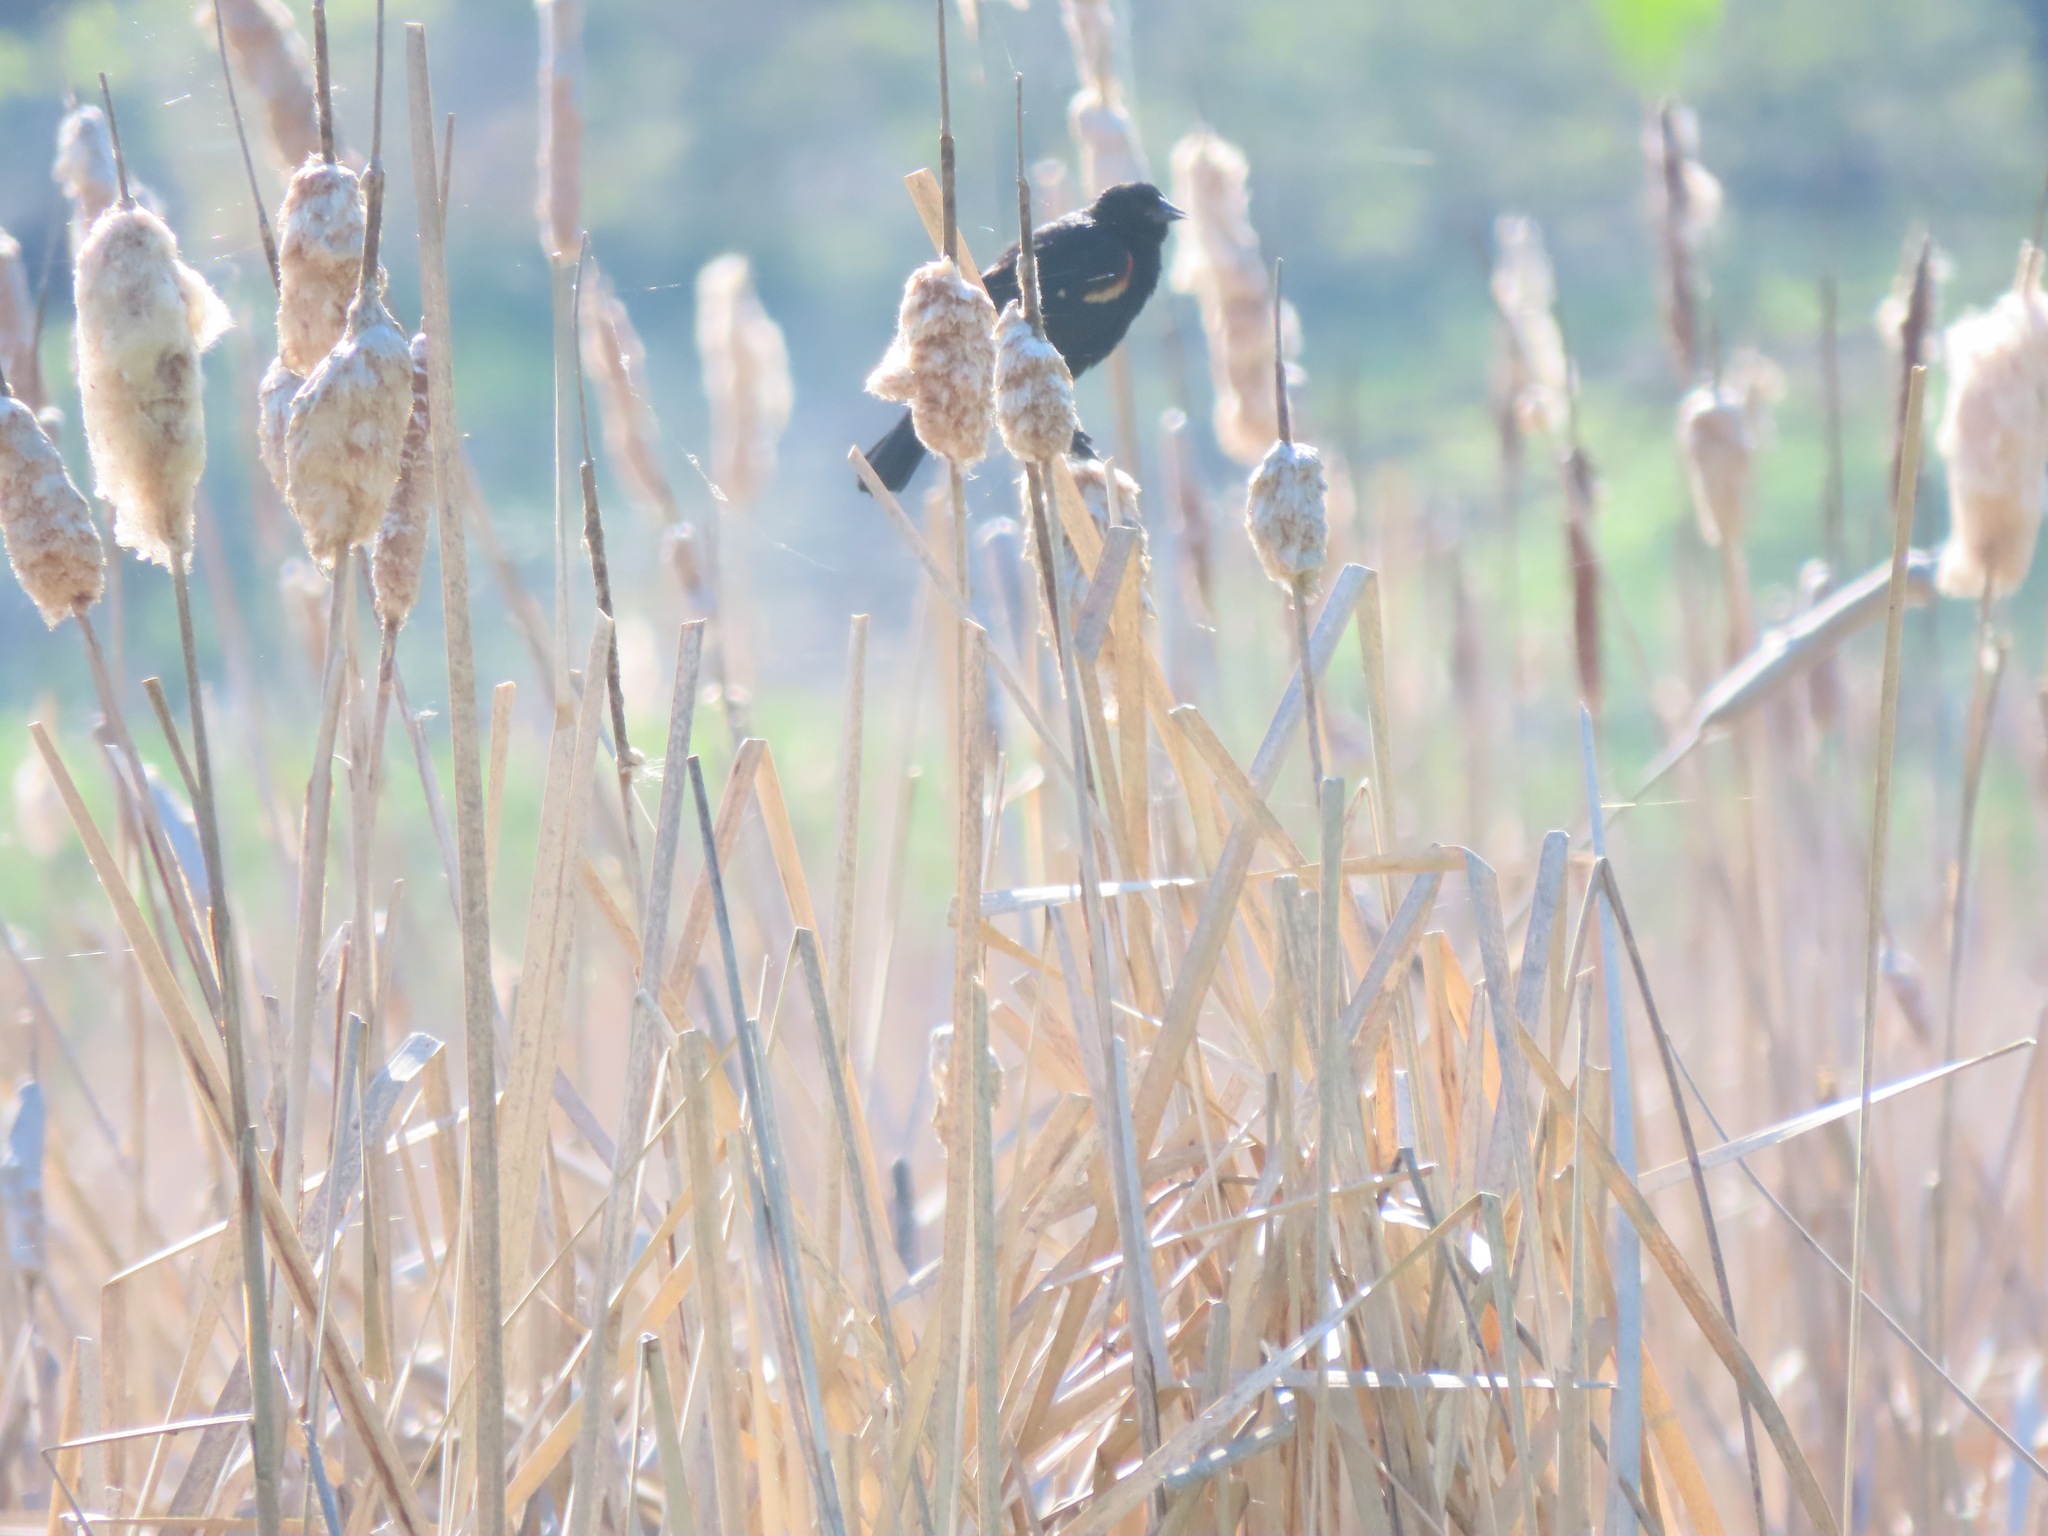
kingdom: Animalia
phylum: Chordata
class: Aves
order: Passeriformes
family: Icteridae
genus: Agelaius
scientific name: Agelaius phoeniceus
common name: Red-winged blackbird
